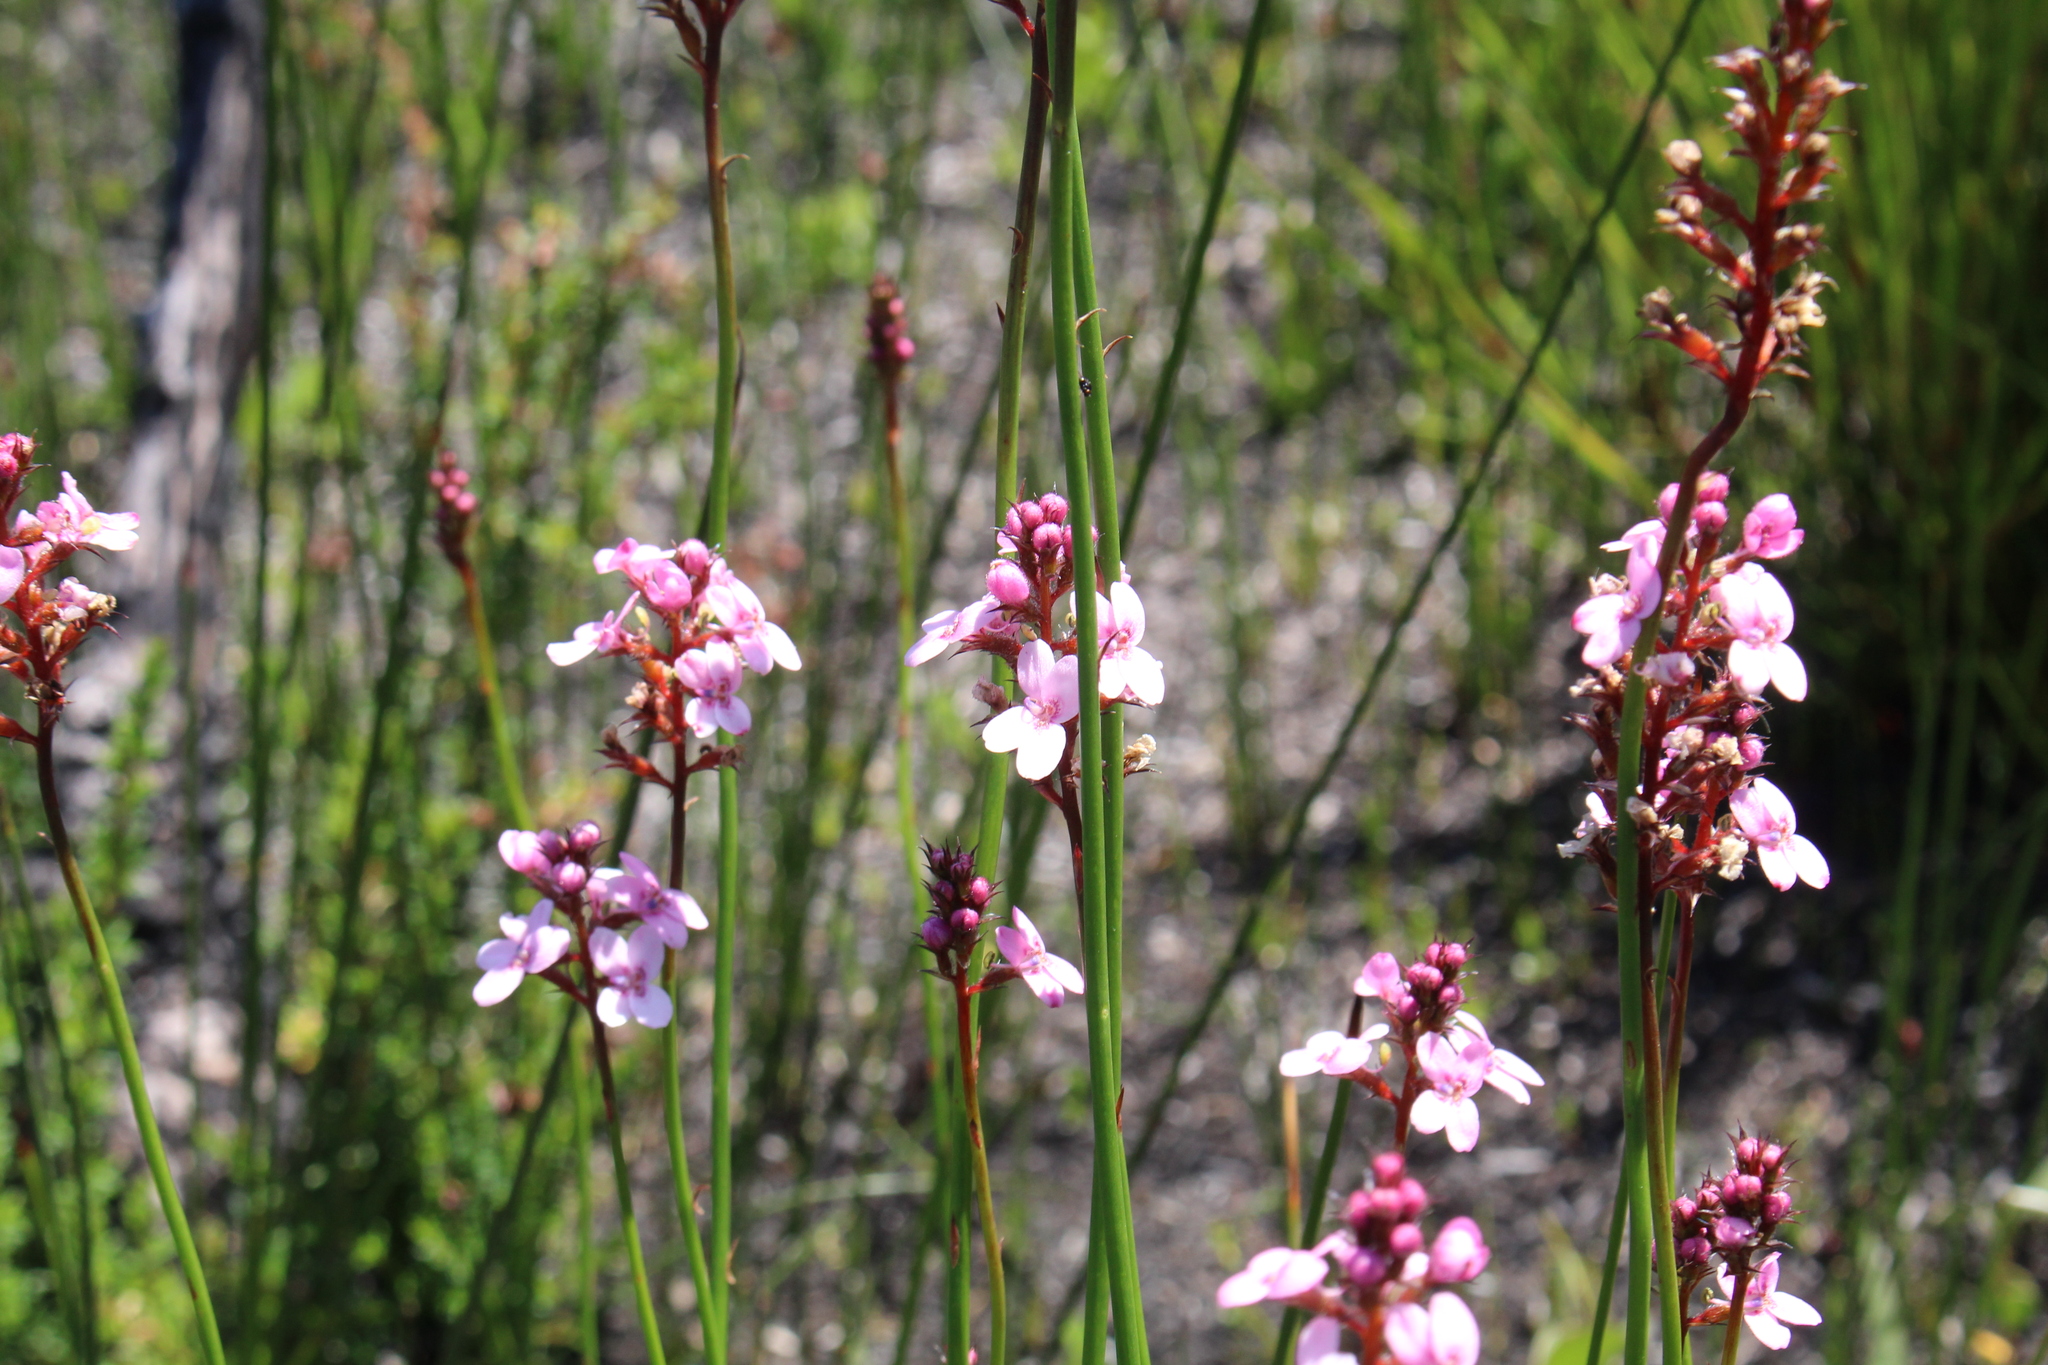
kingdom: Plantae
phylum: Tracheophyta
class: Magnoliopsida
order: Asterales
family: Stylidiaceae
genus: Stylidium
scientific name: Stylidium squamosotuberosum
